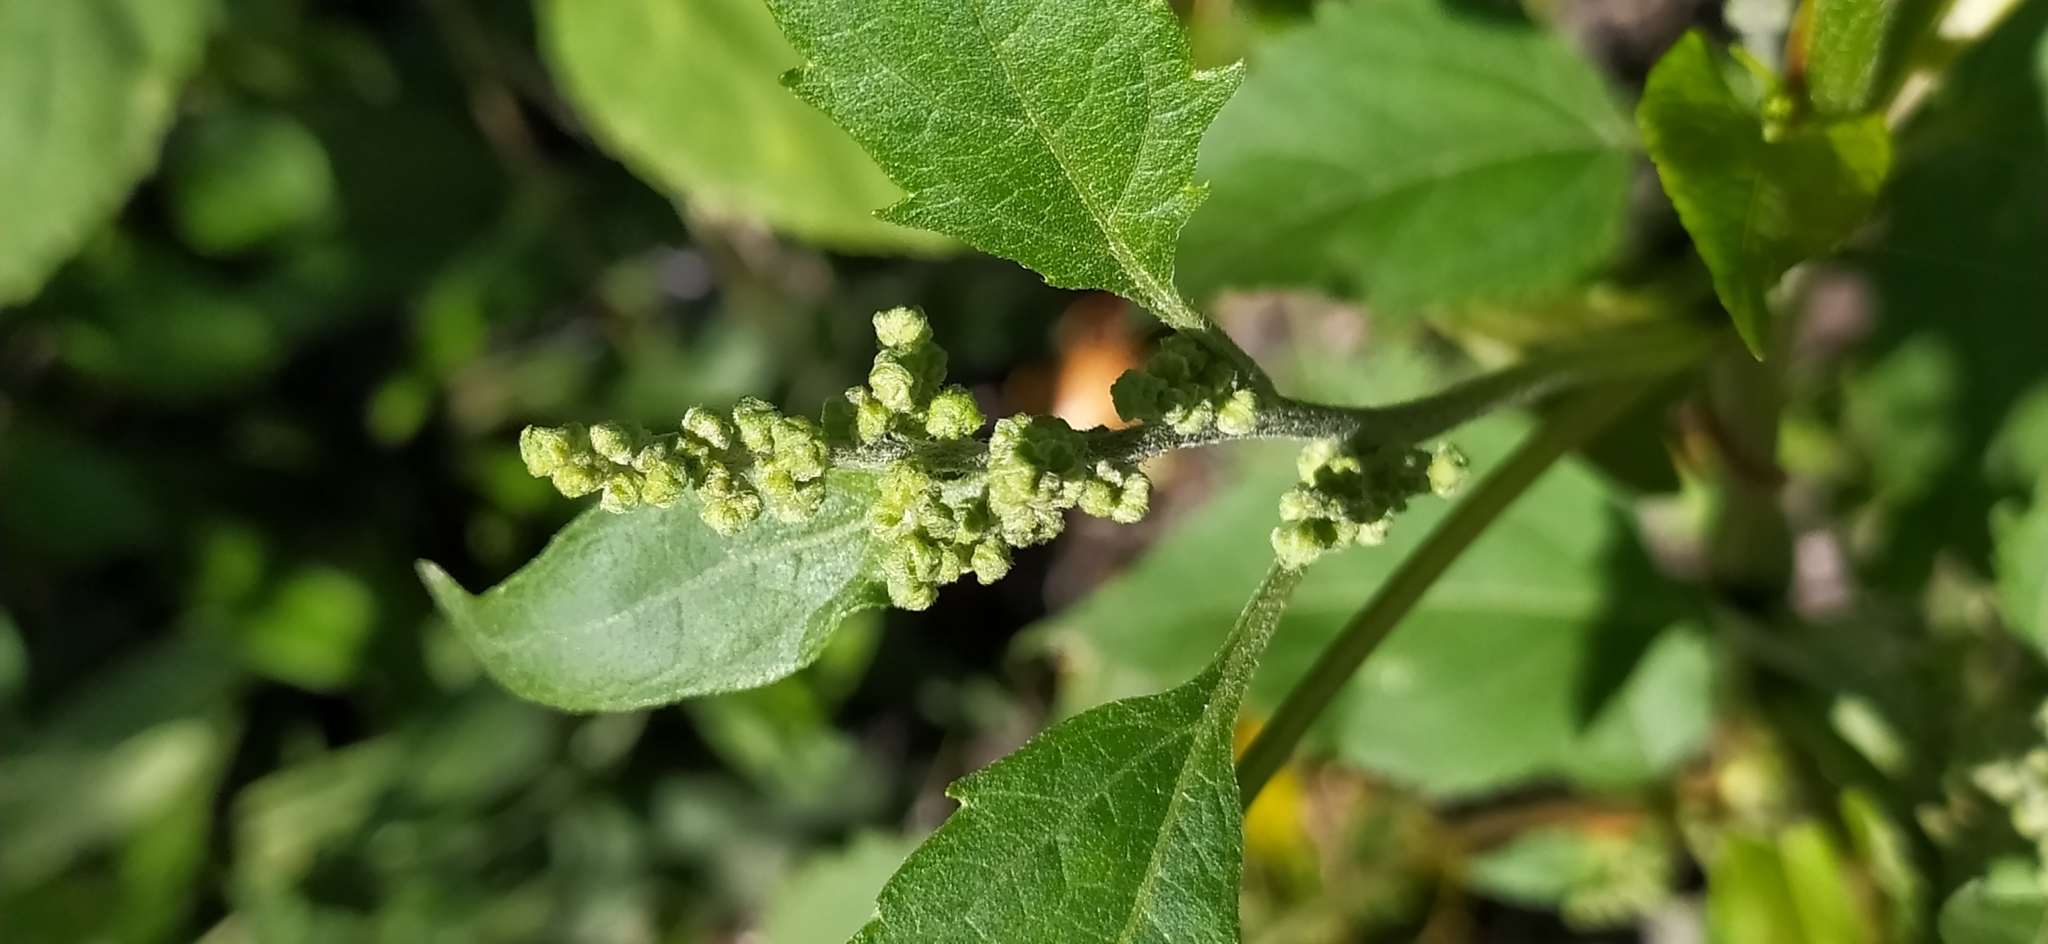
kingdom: Plantae
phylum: Tracheophyta
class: Magnoliopsida
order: Asterales
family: Asteraceae
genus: Cyclachaena
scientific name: Cyclachaena xanthiifolia
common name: Giant sumpweed
